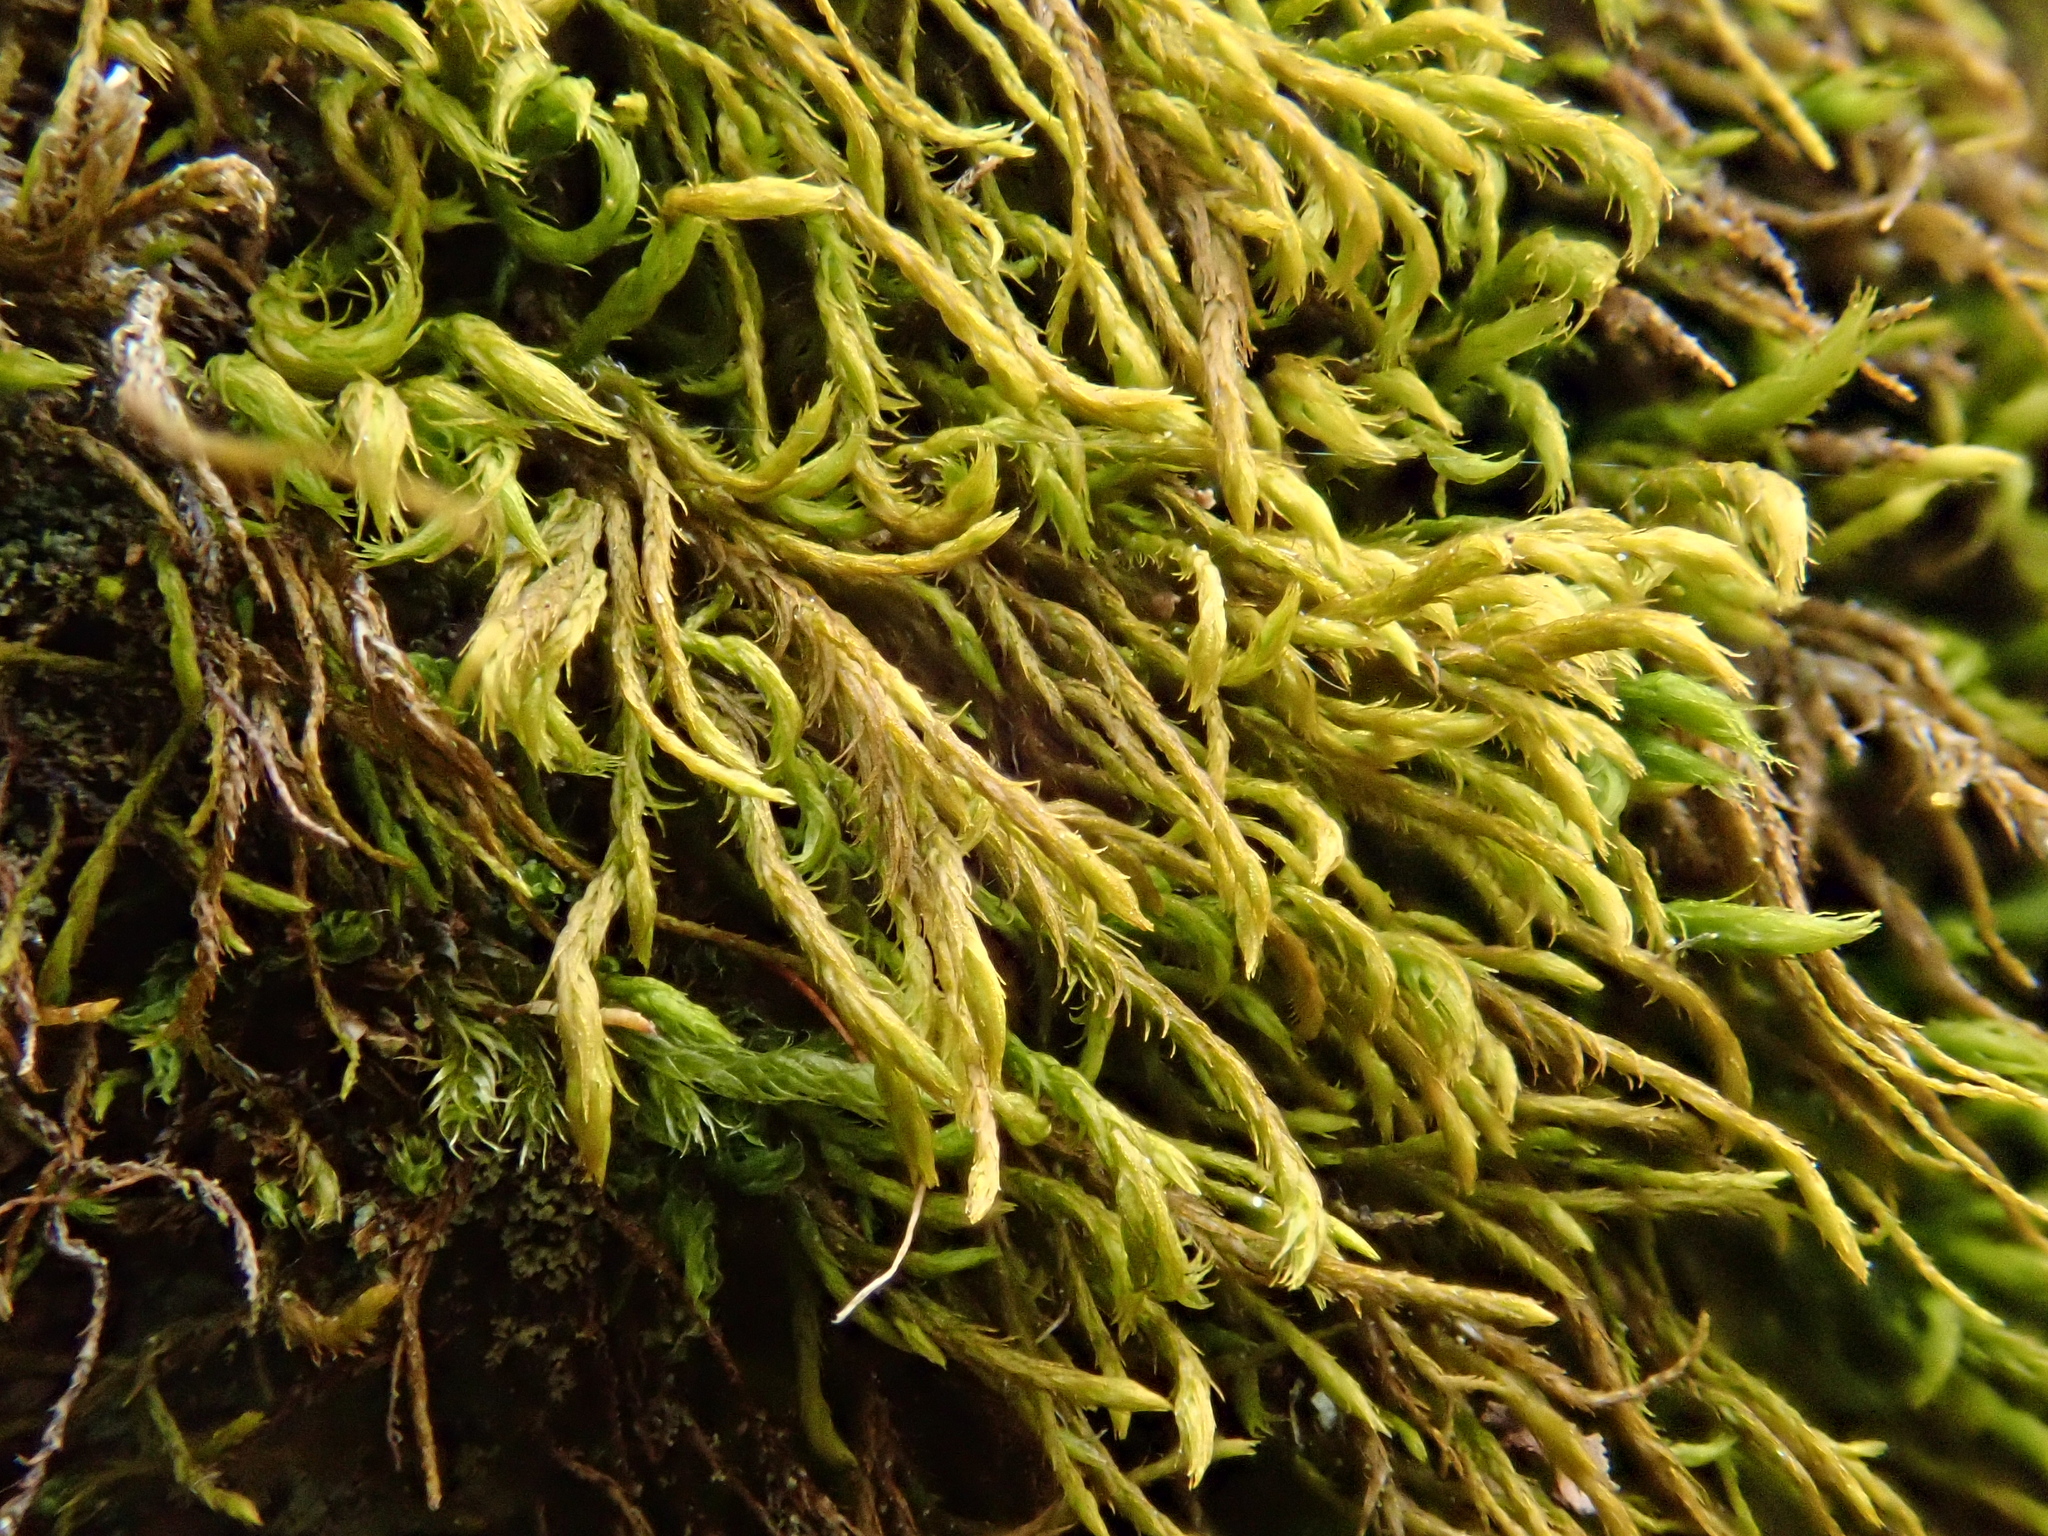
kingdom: Plantae
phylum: Bryophyta
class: Bryopsida
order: Hypnales
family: Anomodontaceae
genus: Anomodontella
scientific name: Anomodontella longifolia
